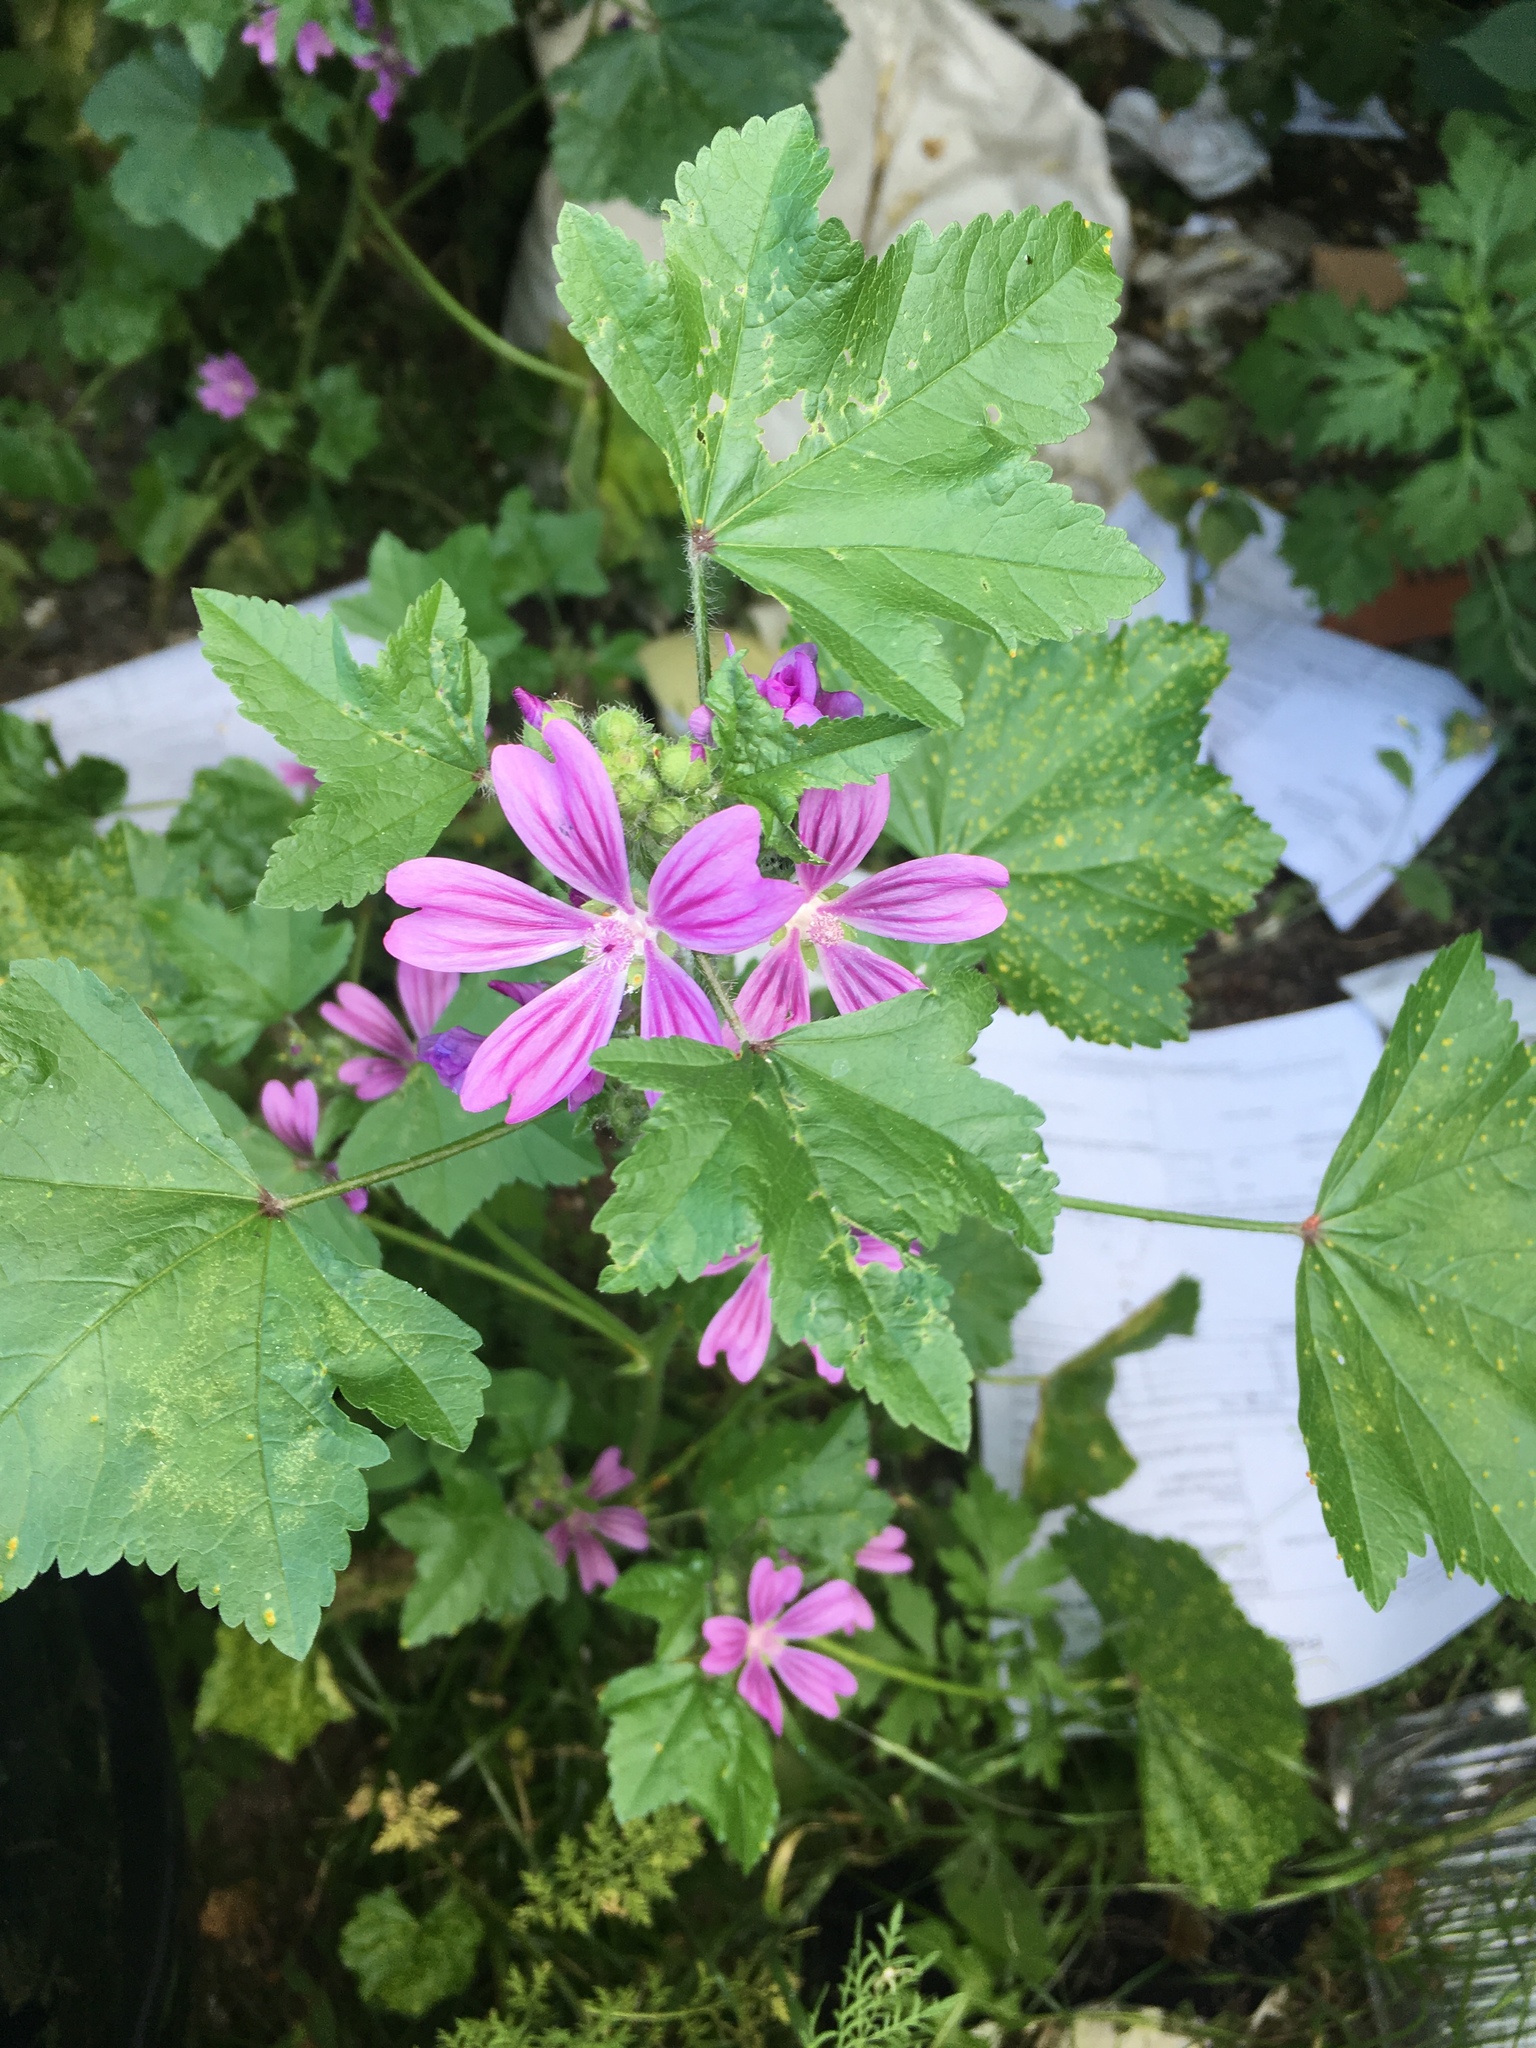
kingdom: Plantae
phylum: Tracheophyta
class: Magnoliopsida
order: Malvales
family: Malvaceae
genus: Malva
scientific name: Malva sylvestris
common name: Common mallow
